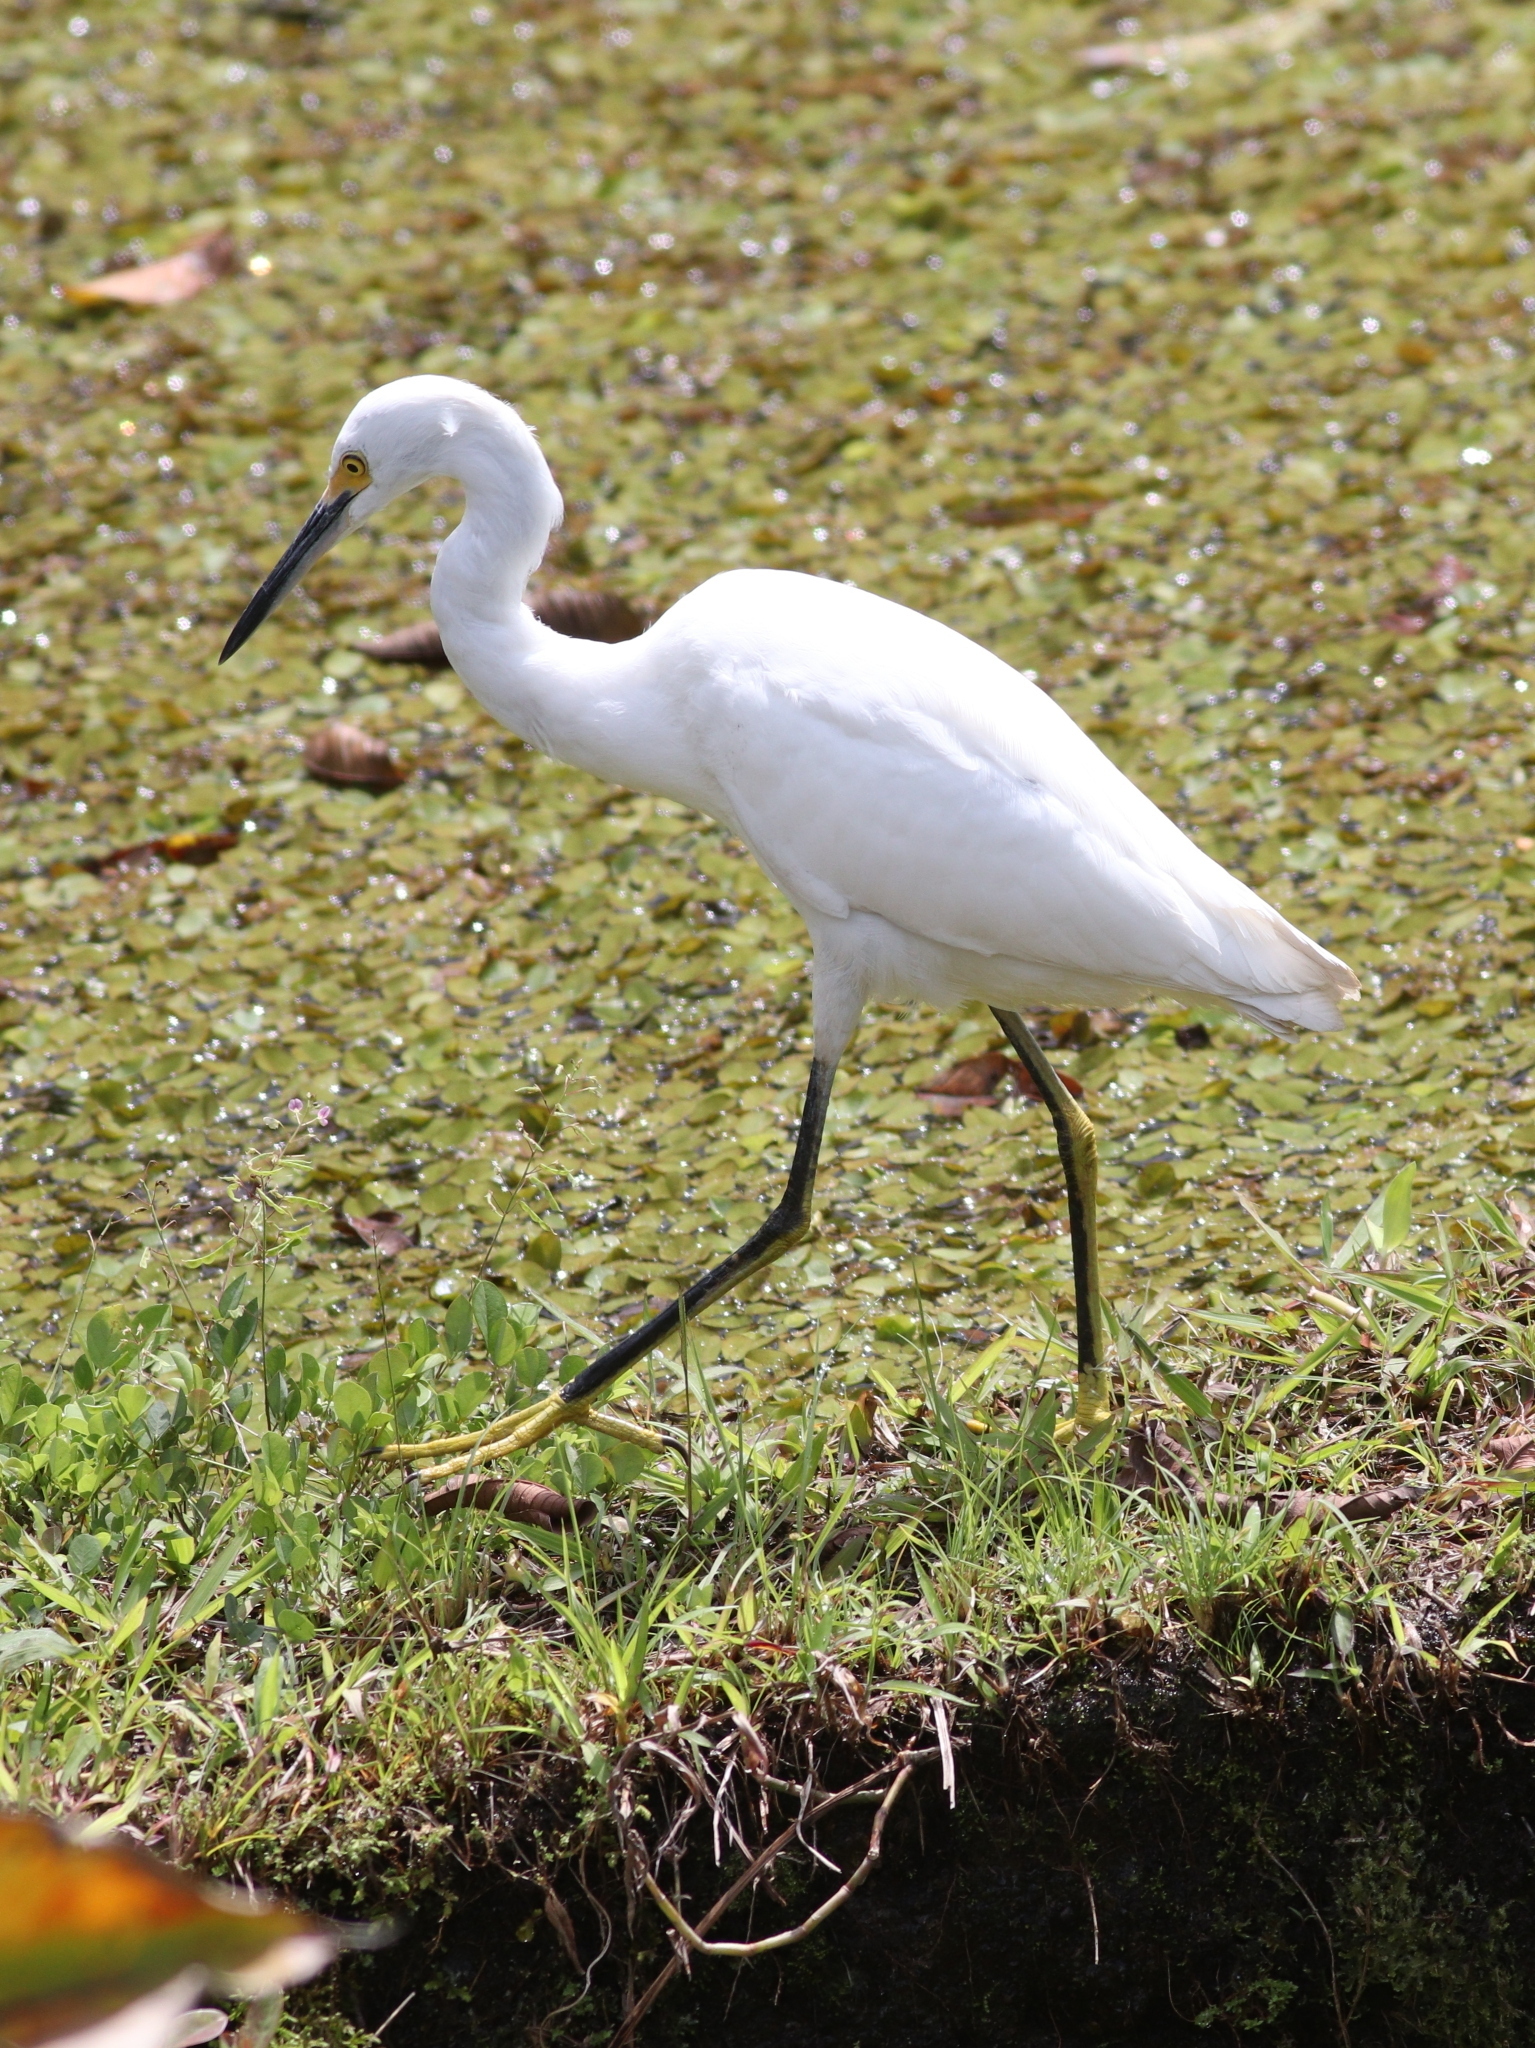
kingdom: Animalia
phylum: Chordata
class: Aves
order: Pelecaniformes
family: Ardeidae
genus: Egretta
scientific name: Egretta thula
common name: Snowy egret
